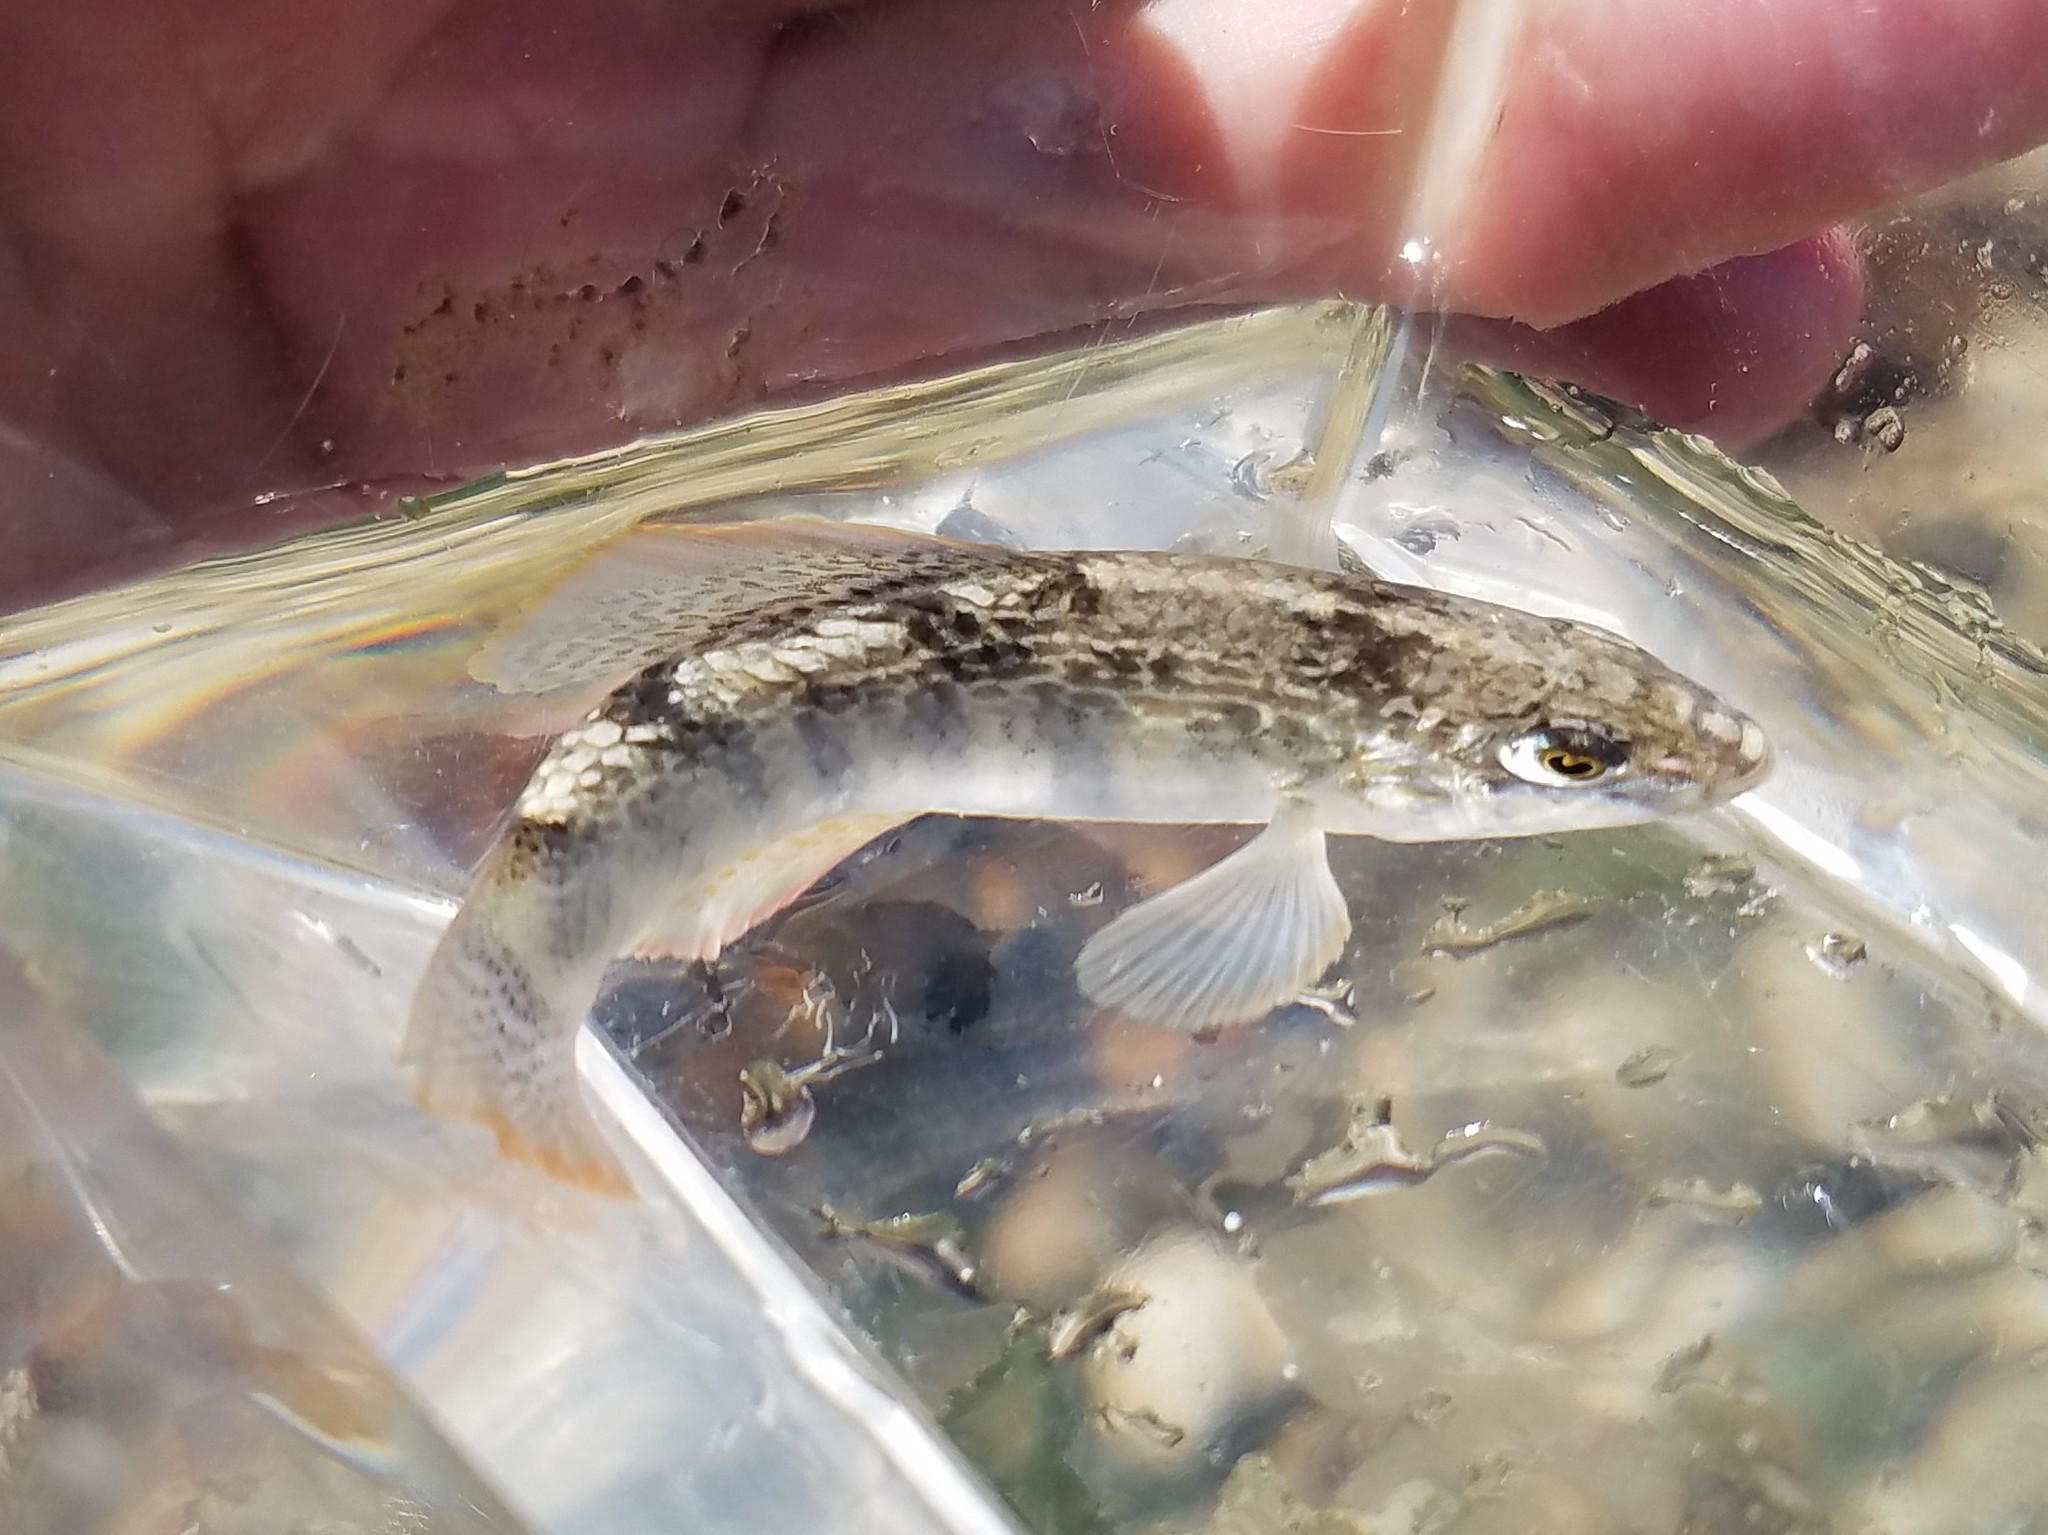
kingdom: Animalia
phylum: Chordata
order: Cyprinodontiformes
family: Cyprinodontidae
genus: Floridichthys
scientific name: Floridichthys carpio
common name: Goldspotted killifish
